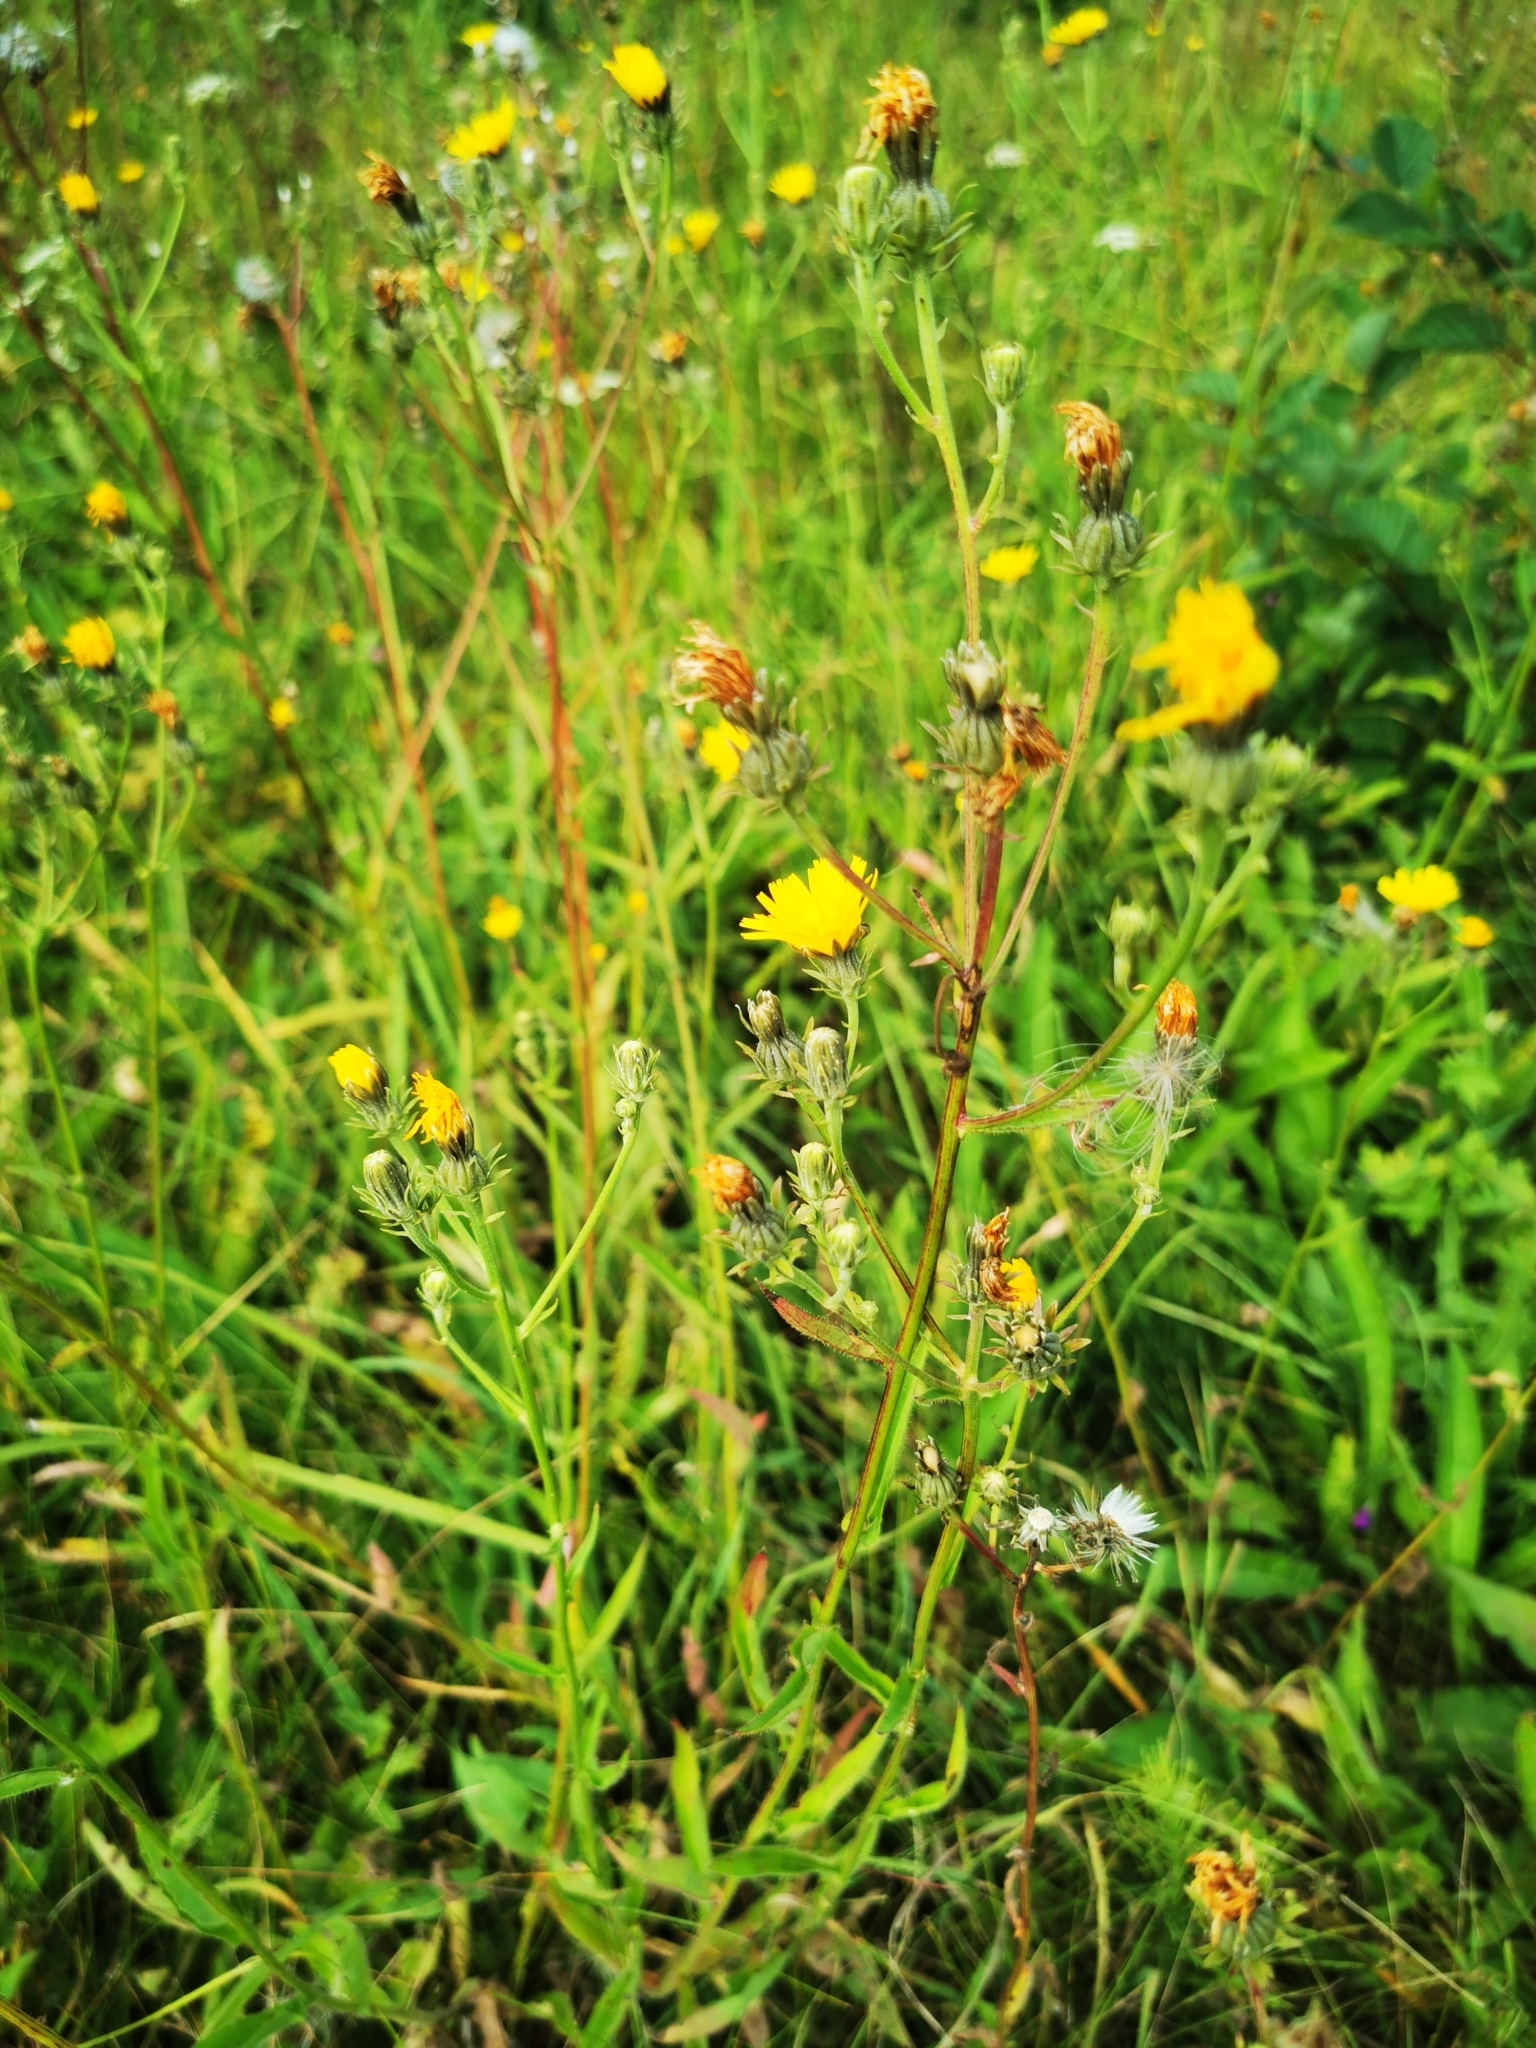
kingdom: Plantae
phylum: Tracheophyta
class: Magnoliopsida
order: Asterales
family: Asteraceae
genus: Picris
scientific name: Picris hieracioides
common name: Hawkweed oxtongue
